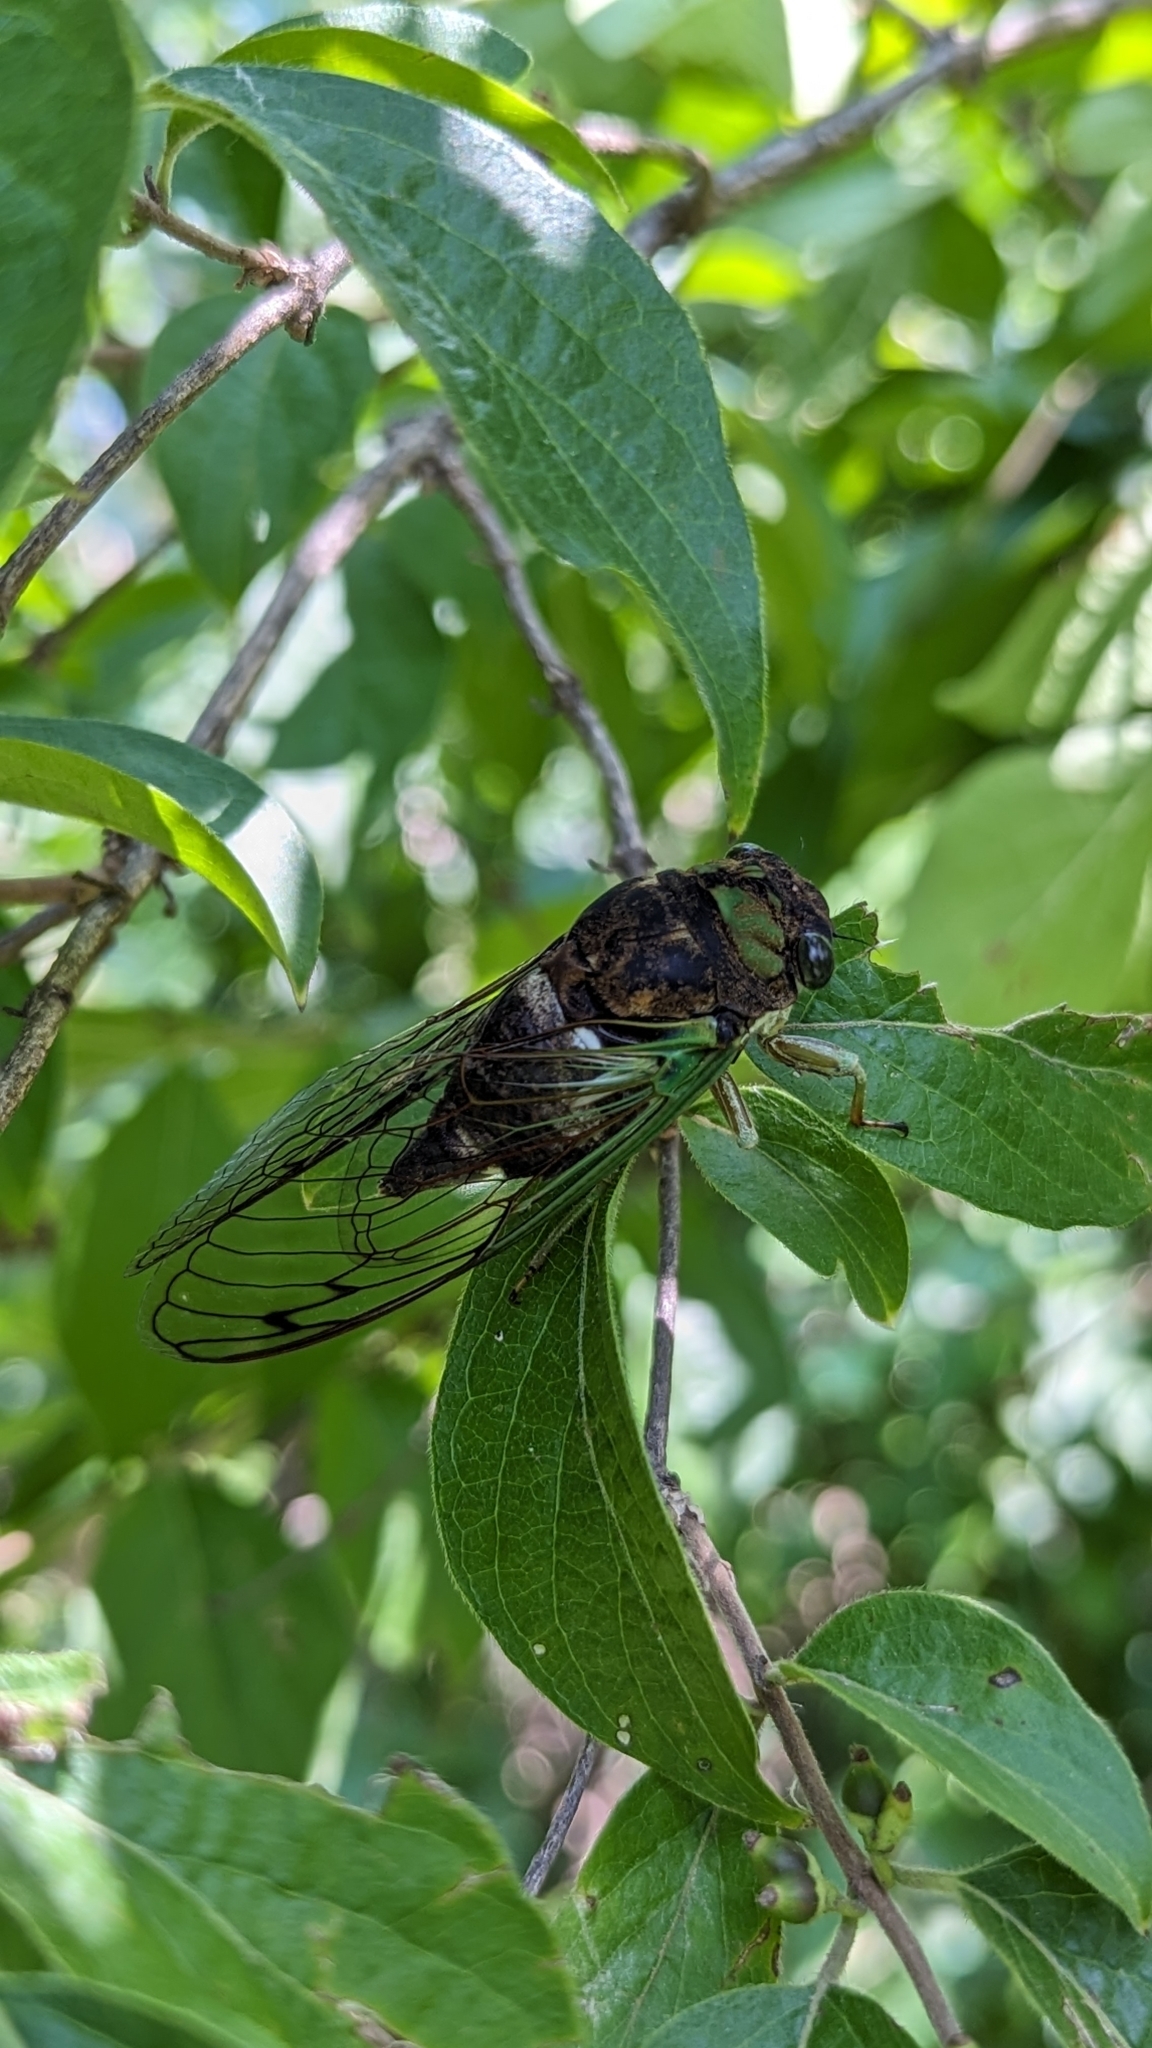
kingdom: Animalia
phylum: Arthropoda
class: Insecta
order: Hemiptera
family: Cicadidae
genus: Neotibicen
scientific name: Neotibicen tibicen
